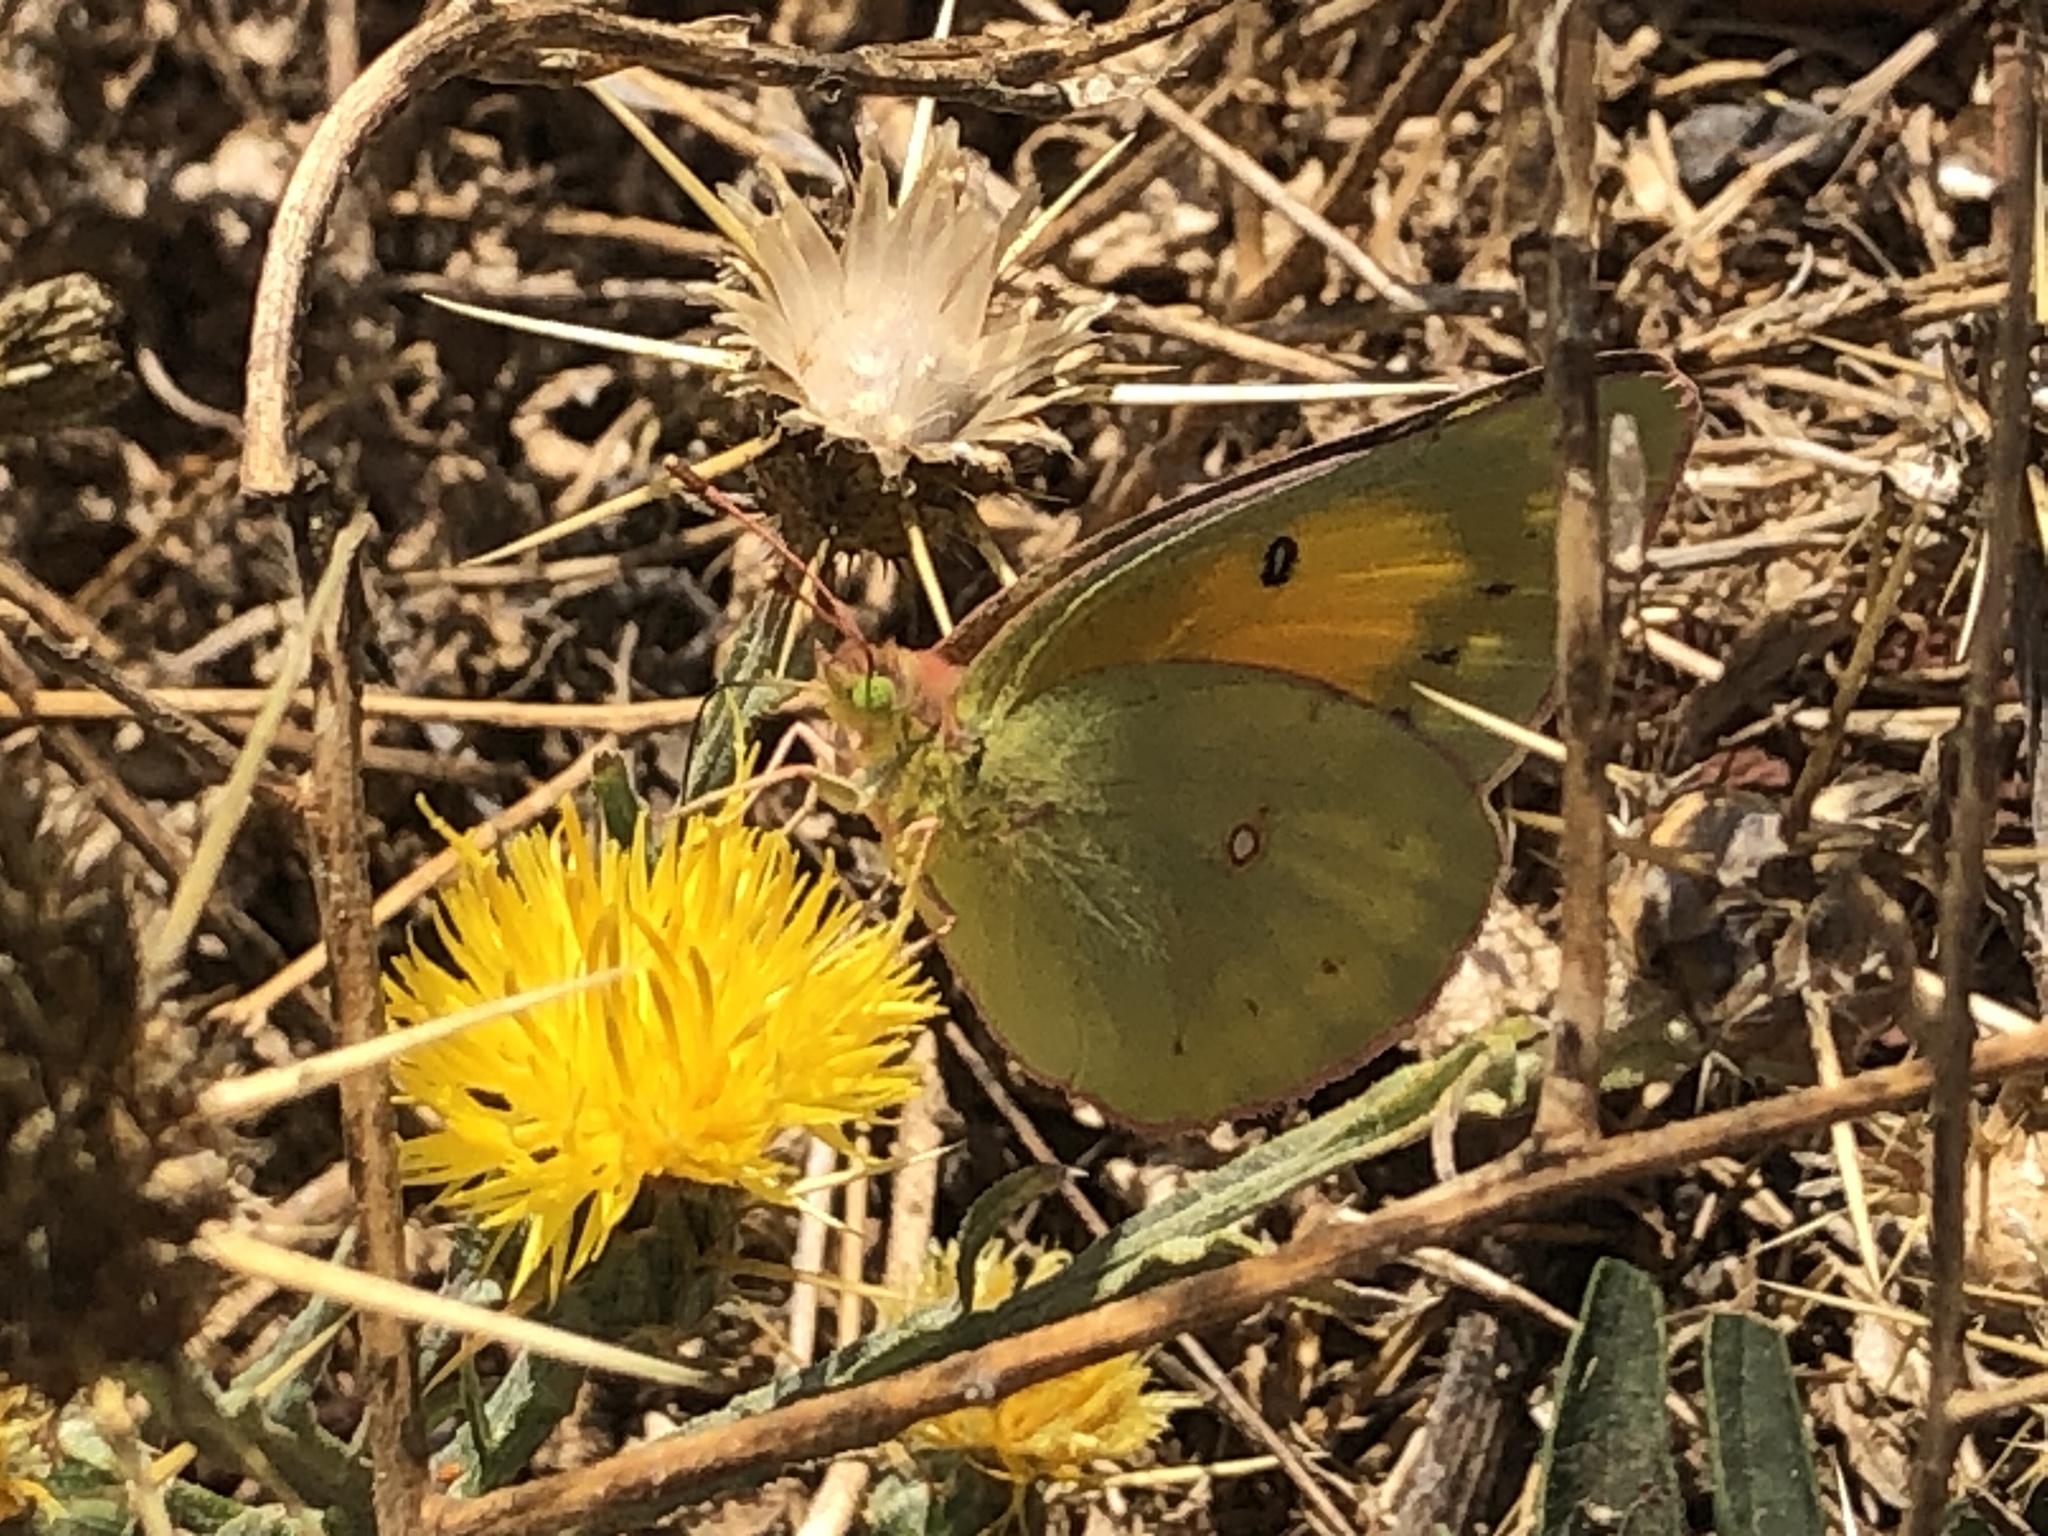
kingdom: Animalia
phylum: Arthropoda
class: Insecta
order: Lepidoptera
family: Pieridae
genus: Colias
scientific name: Colias eurytheme
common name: Alfalfa butterfly
